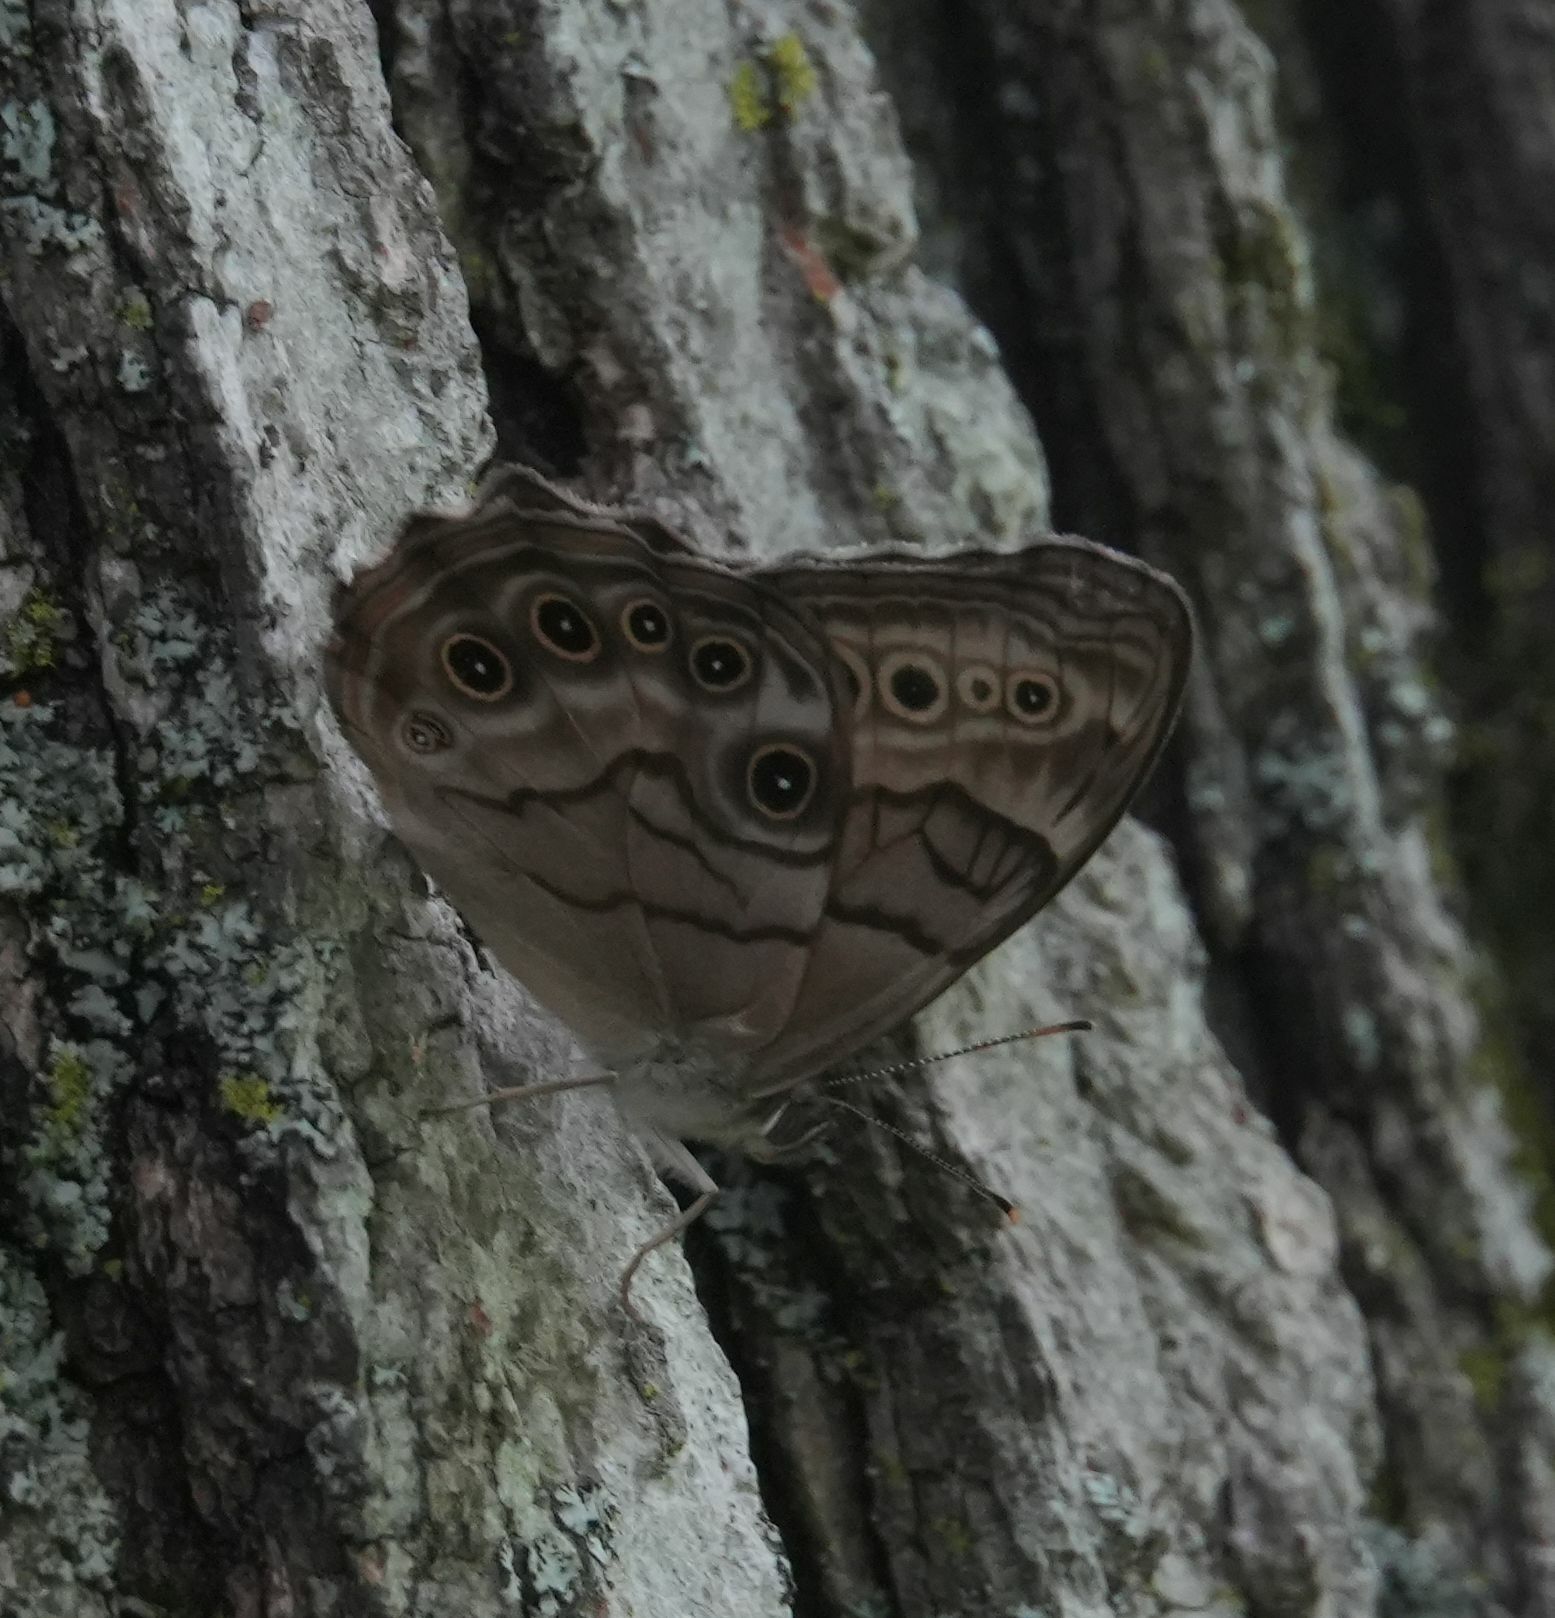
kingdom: Animalia
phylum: Arthropoda
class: Insecta
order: Lepidoptera
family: Nymphalidae
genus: Lethe
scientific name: Lethe anthedon
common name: Northern pearly-eye
